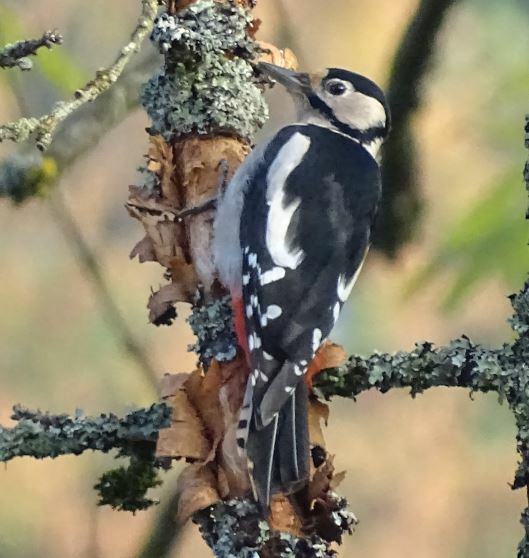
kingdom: Animalia
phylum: Chordata
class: Aves
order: Piciformes
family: Picidae
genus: Dendrocopos
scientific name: Dendrocopos major
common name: Great spotted woodpecker
